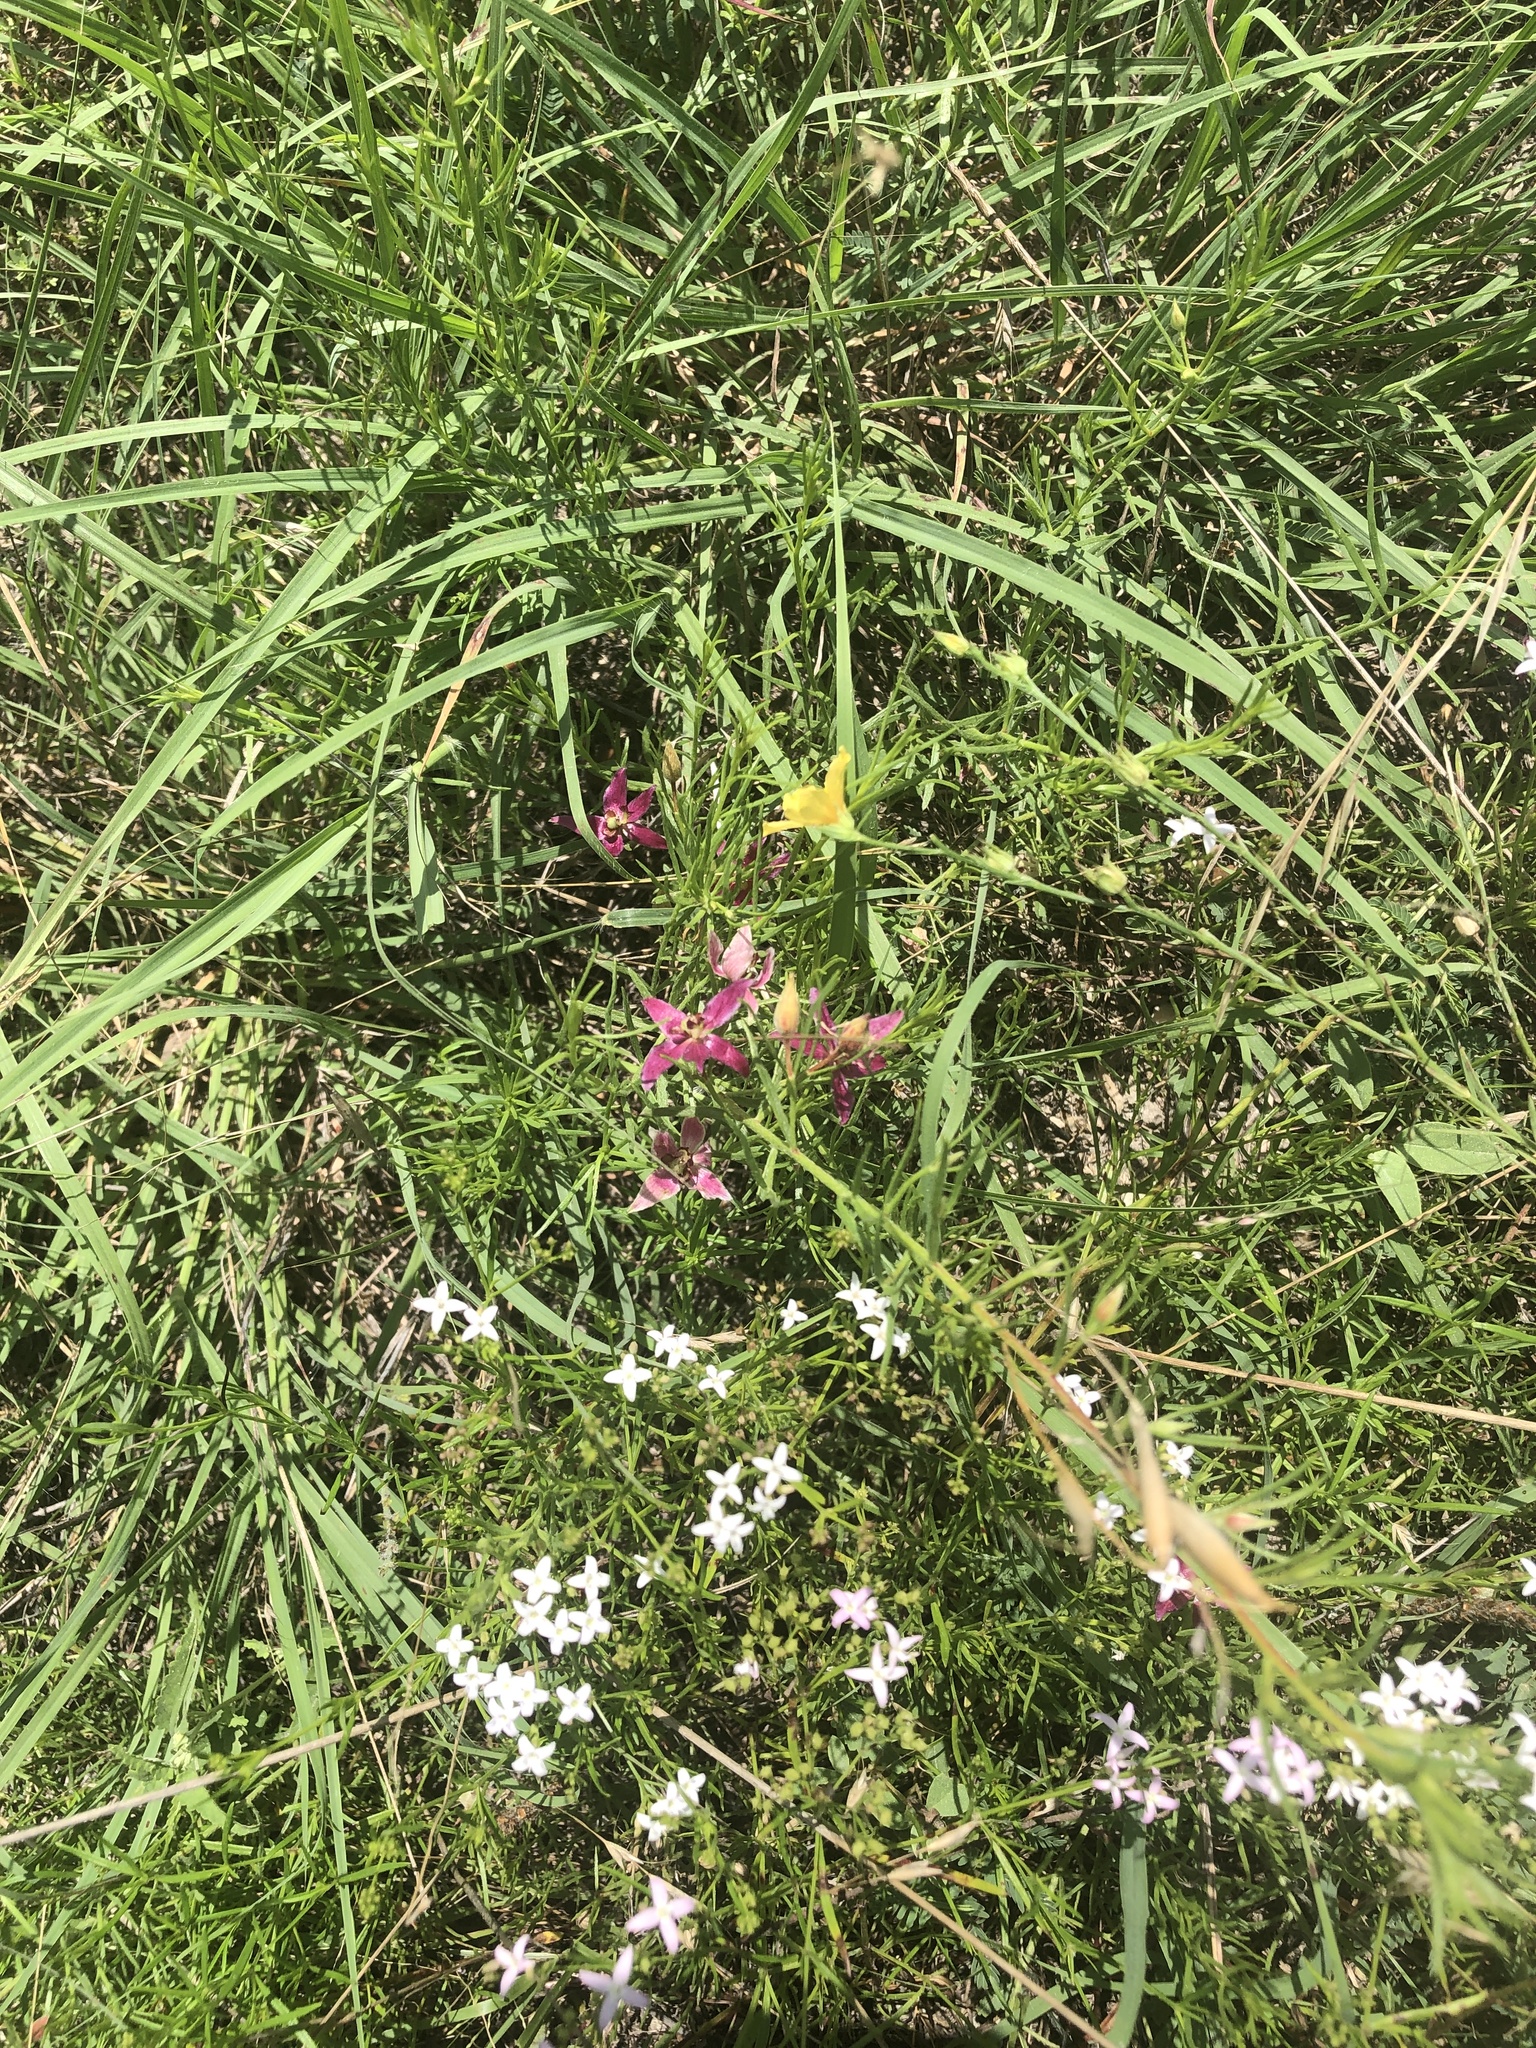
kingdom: Plantae
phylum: Tracheophyta
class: Magnoliopsida
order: Zygophyllales
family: Krameriaceae
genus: Krameria
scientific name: Krameria lanceolata
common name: Ratany
